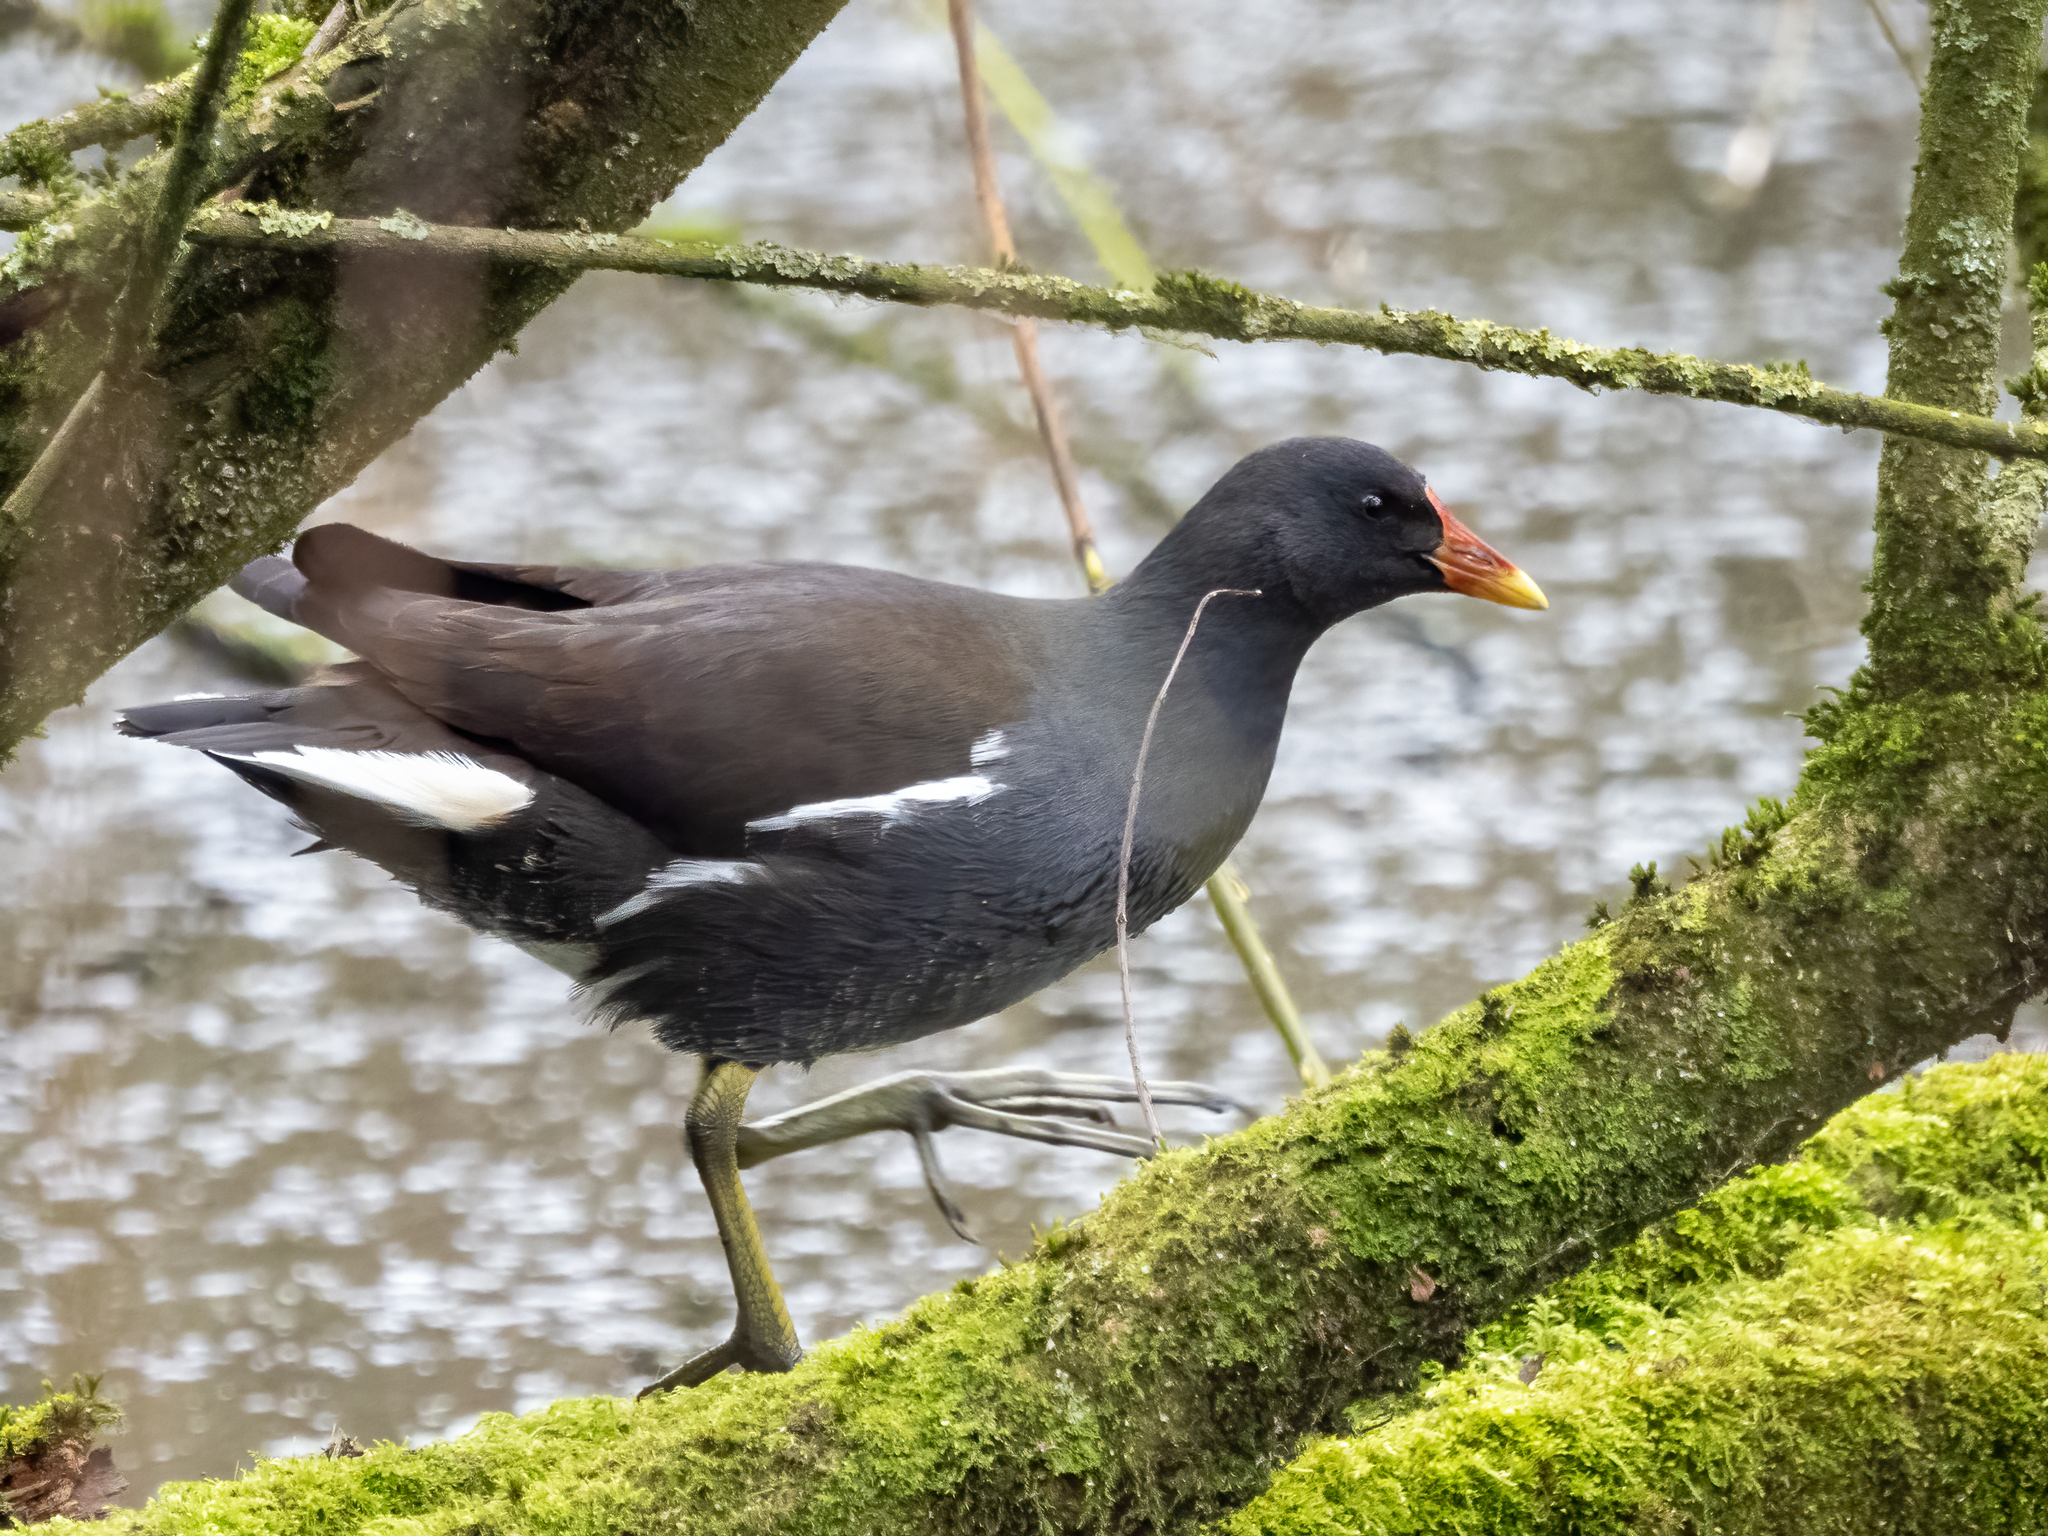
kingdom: Animalia
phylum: Chordata
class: Aves
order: Gruiformes
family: Rallidae
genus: Gallinula
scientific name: Gallinula chloropus
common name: Common moorhen
